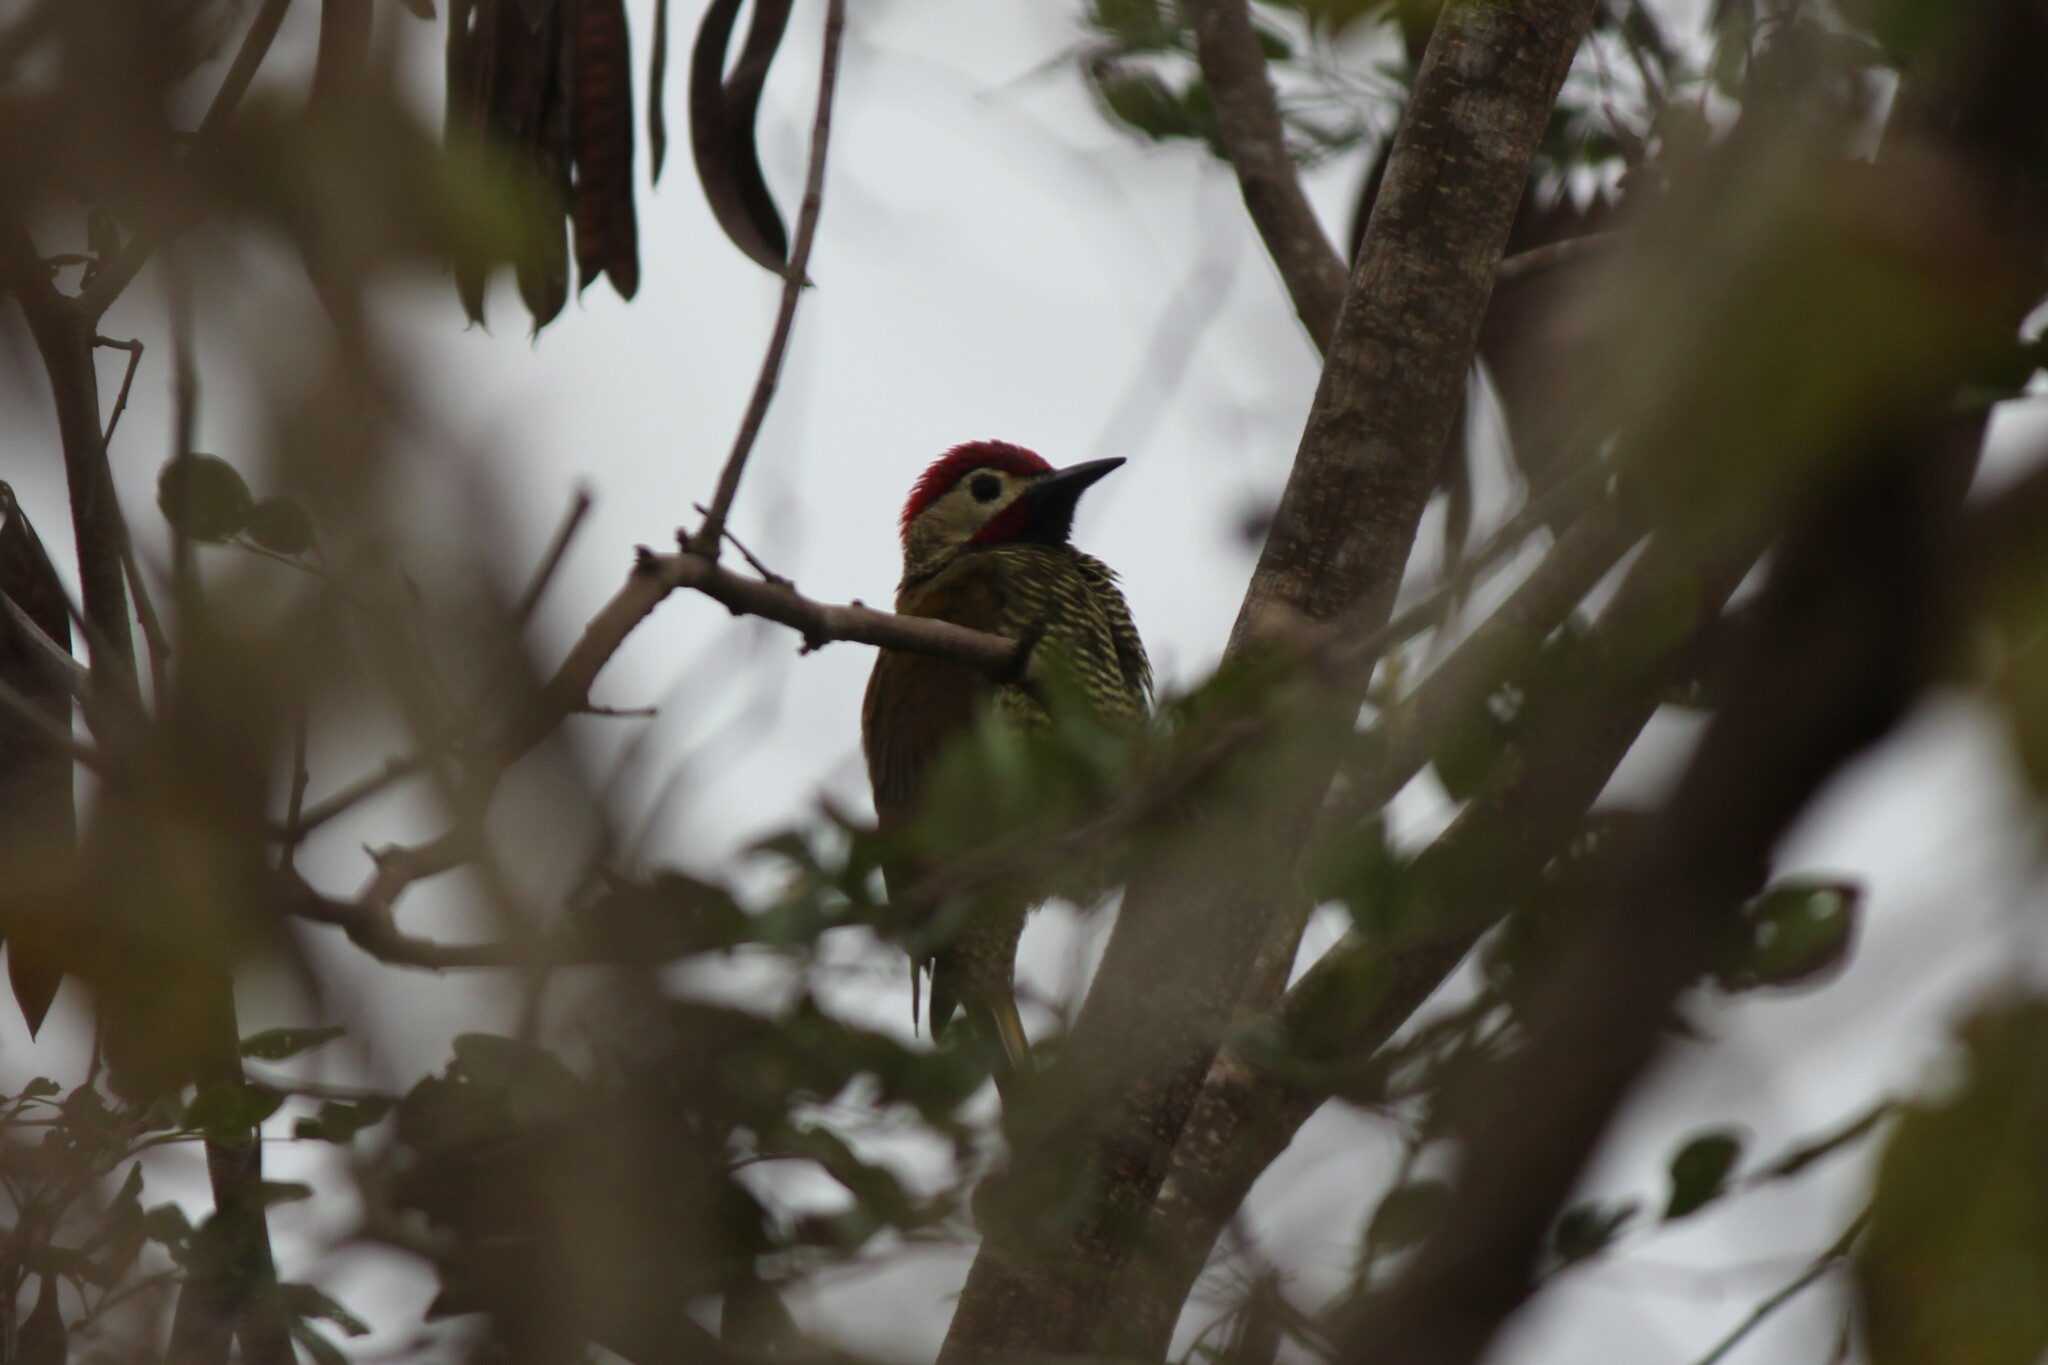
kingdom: Animalia
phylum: Chordata
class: Aves
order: Piciformes
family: Picidae
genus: Colaptes
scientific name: Colaptes rubiginosus
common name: Golden-olive woodpecker
